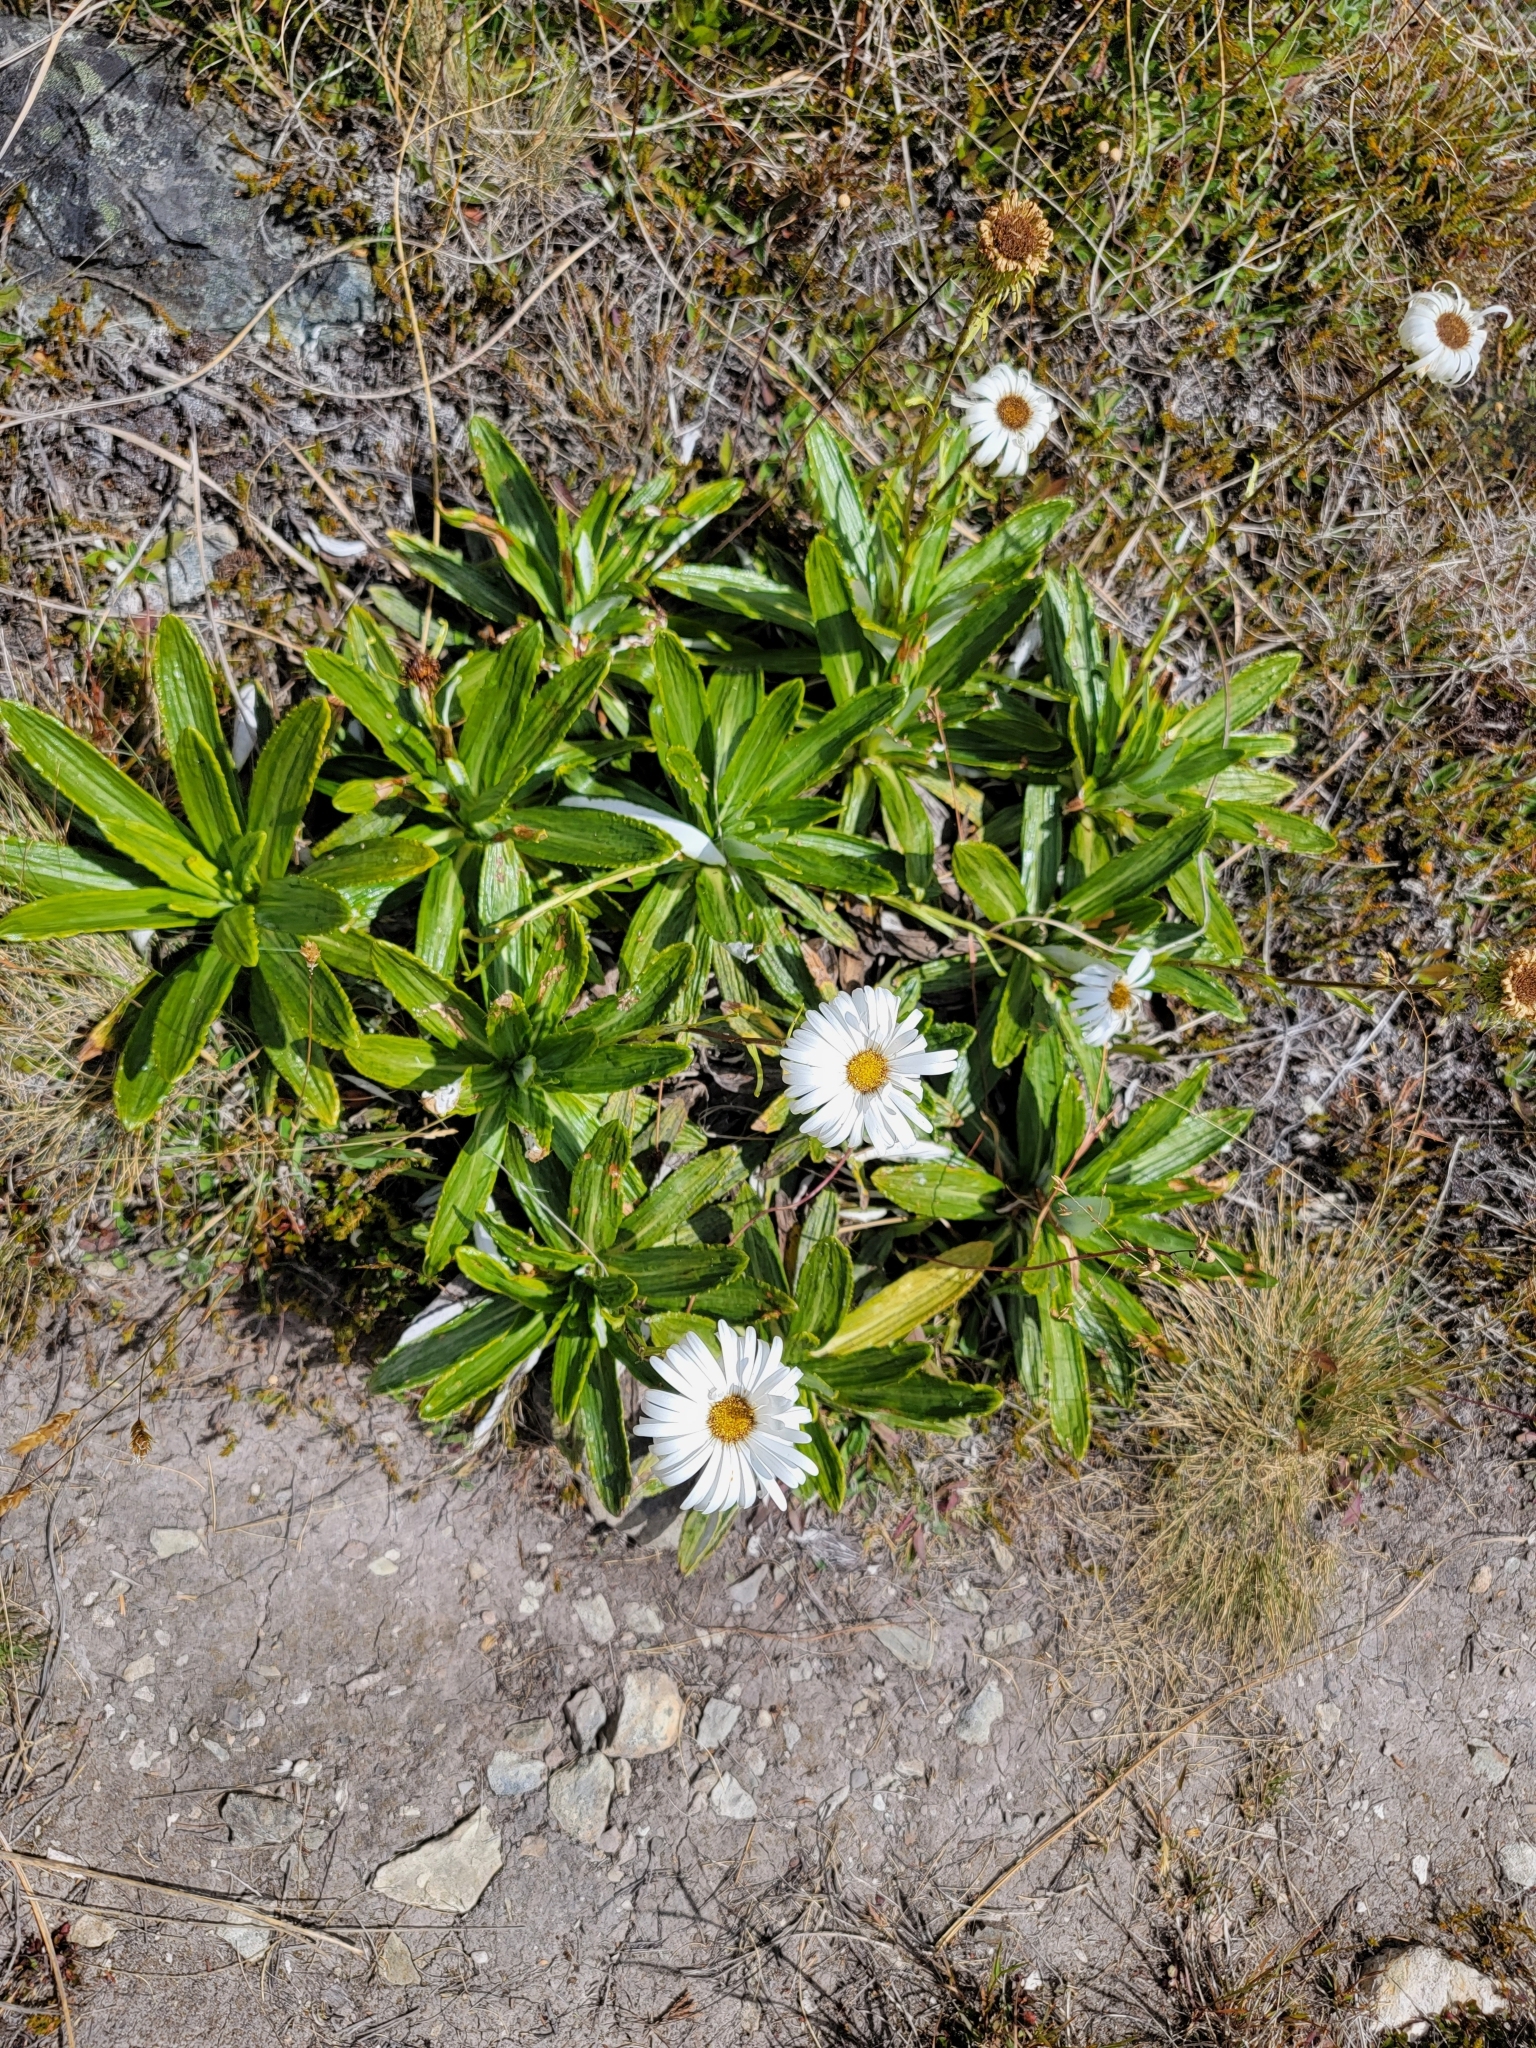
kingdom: Plantae
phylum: Tracheophyta
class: Magnoliopsida
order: Asterales
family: Asteraceae
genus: Celmisia
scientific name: Celmisia densiflora
